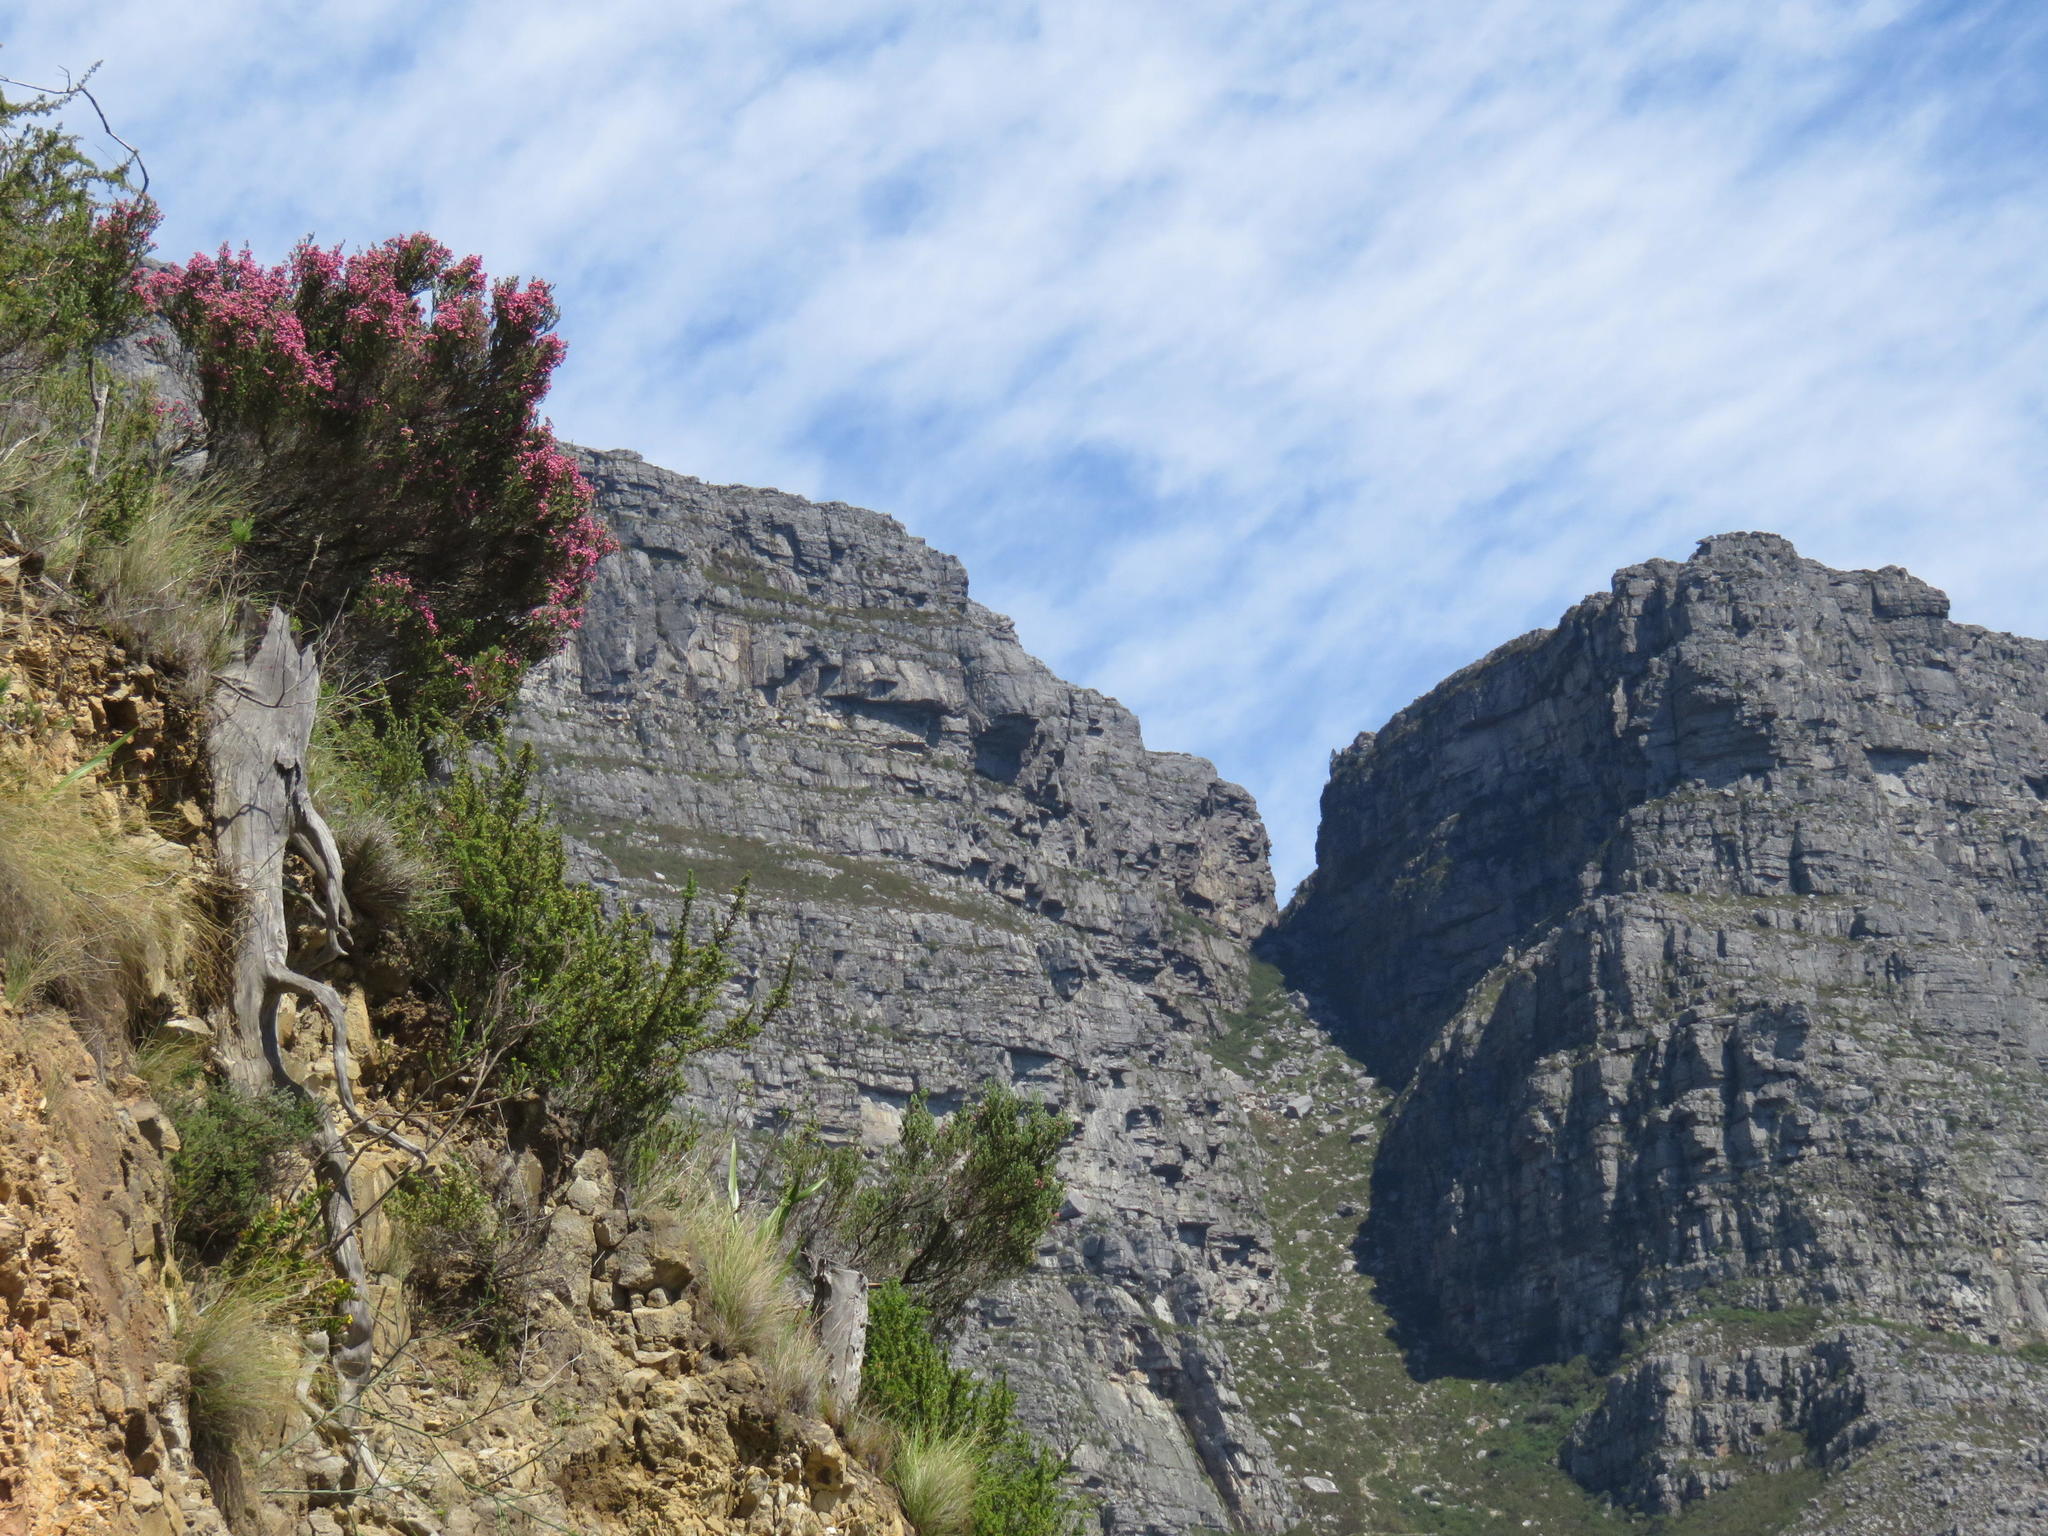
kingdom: Plantae
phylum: Tracheophyta
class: Magnoliopsida
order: Ericales
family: Ericaceae
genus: Erica
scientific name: Erica baccans
